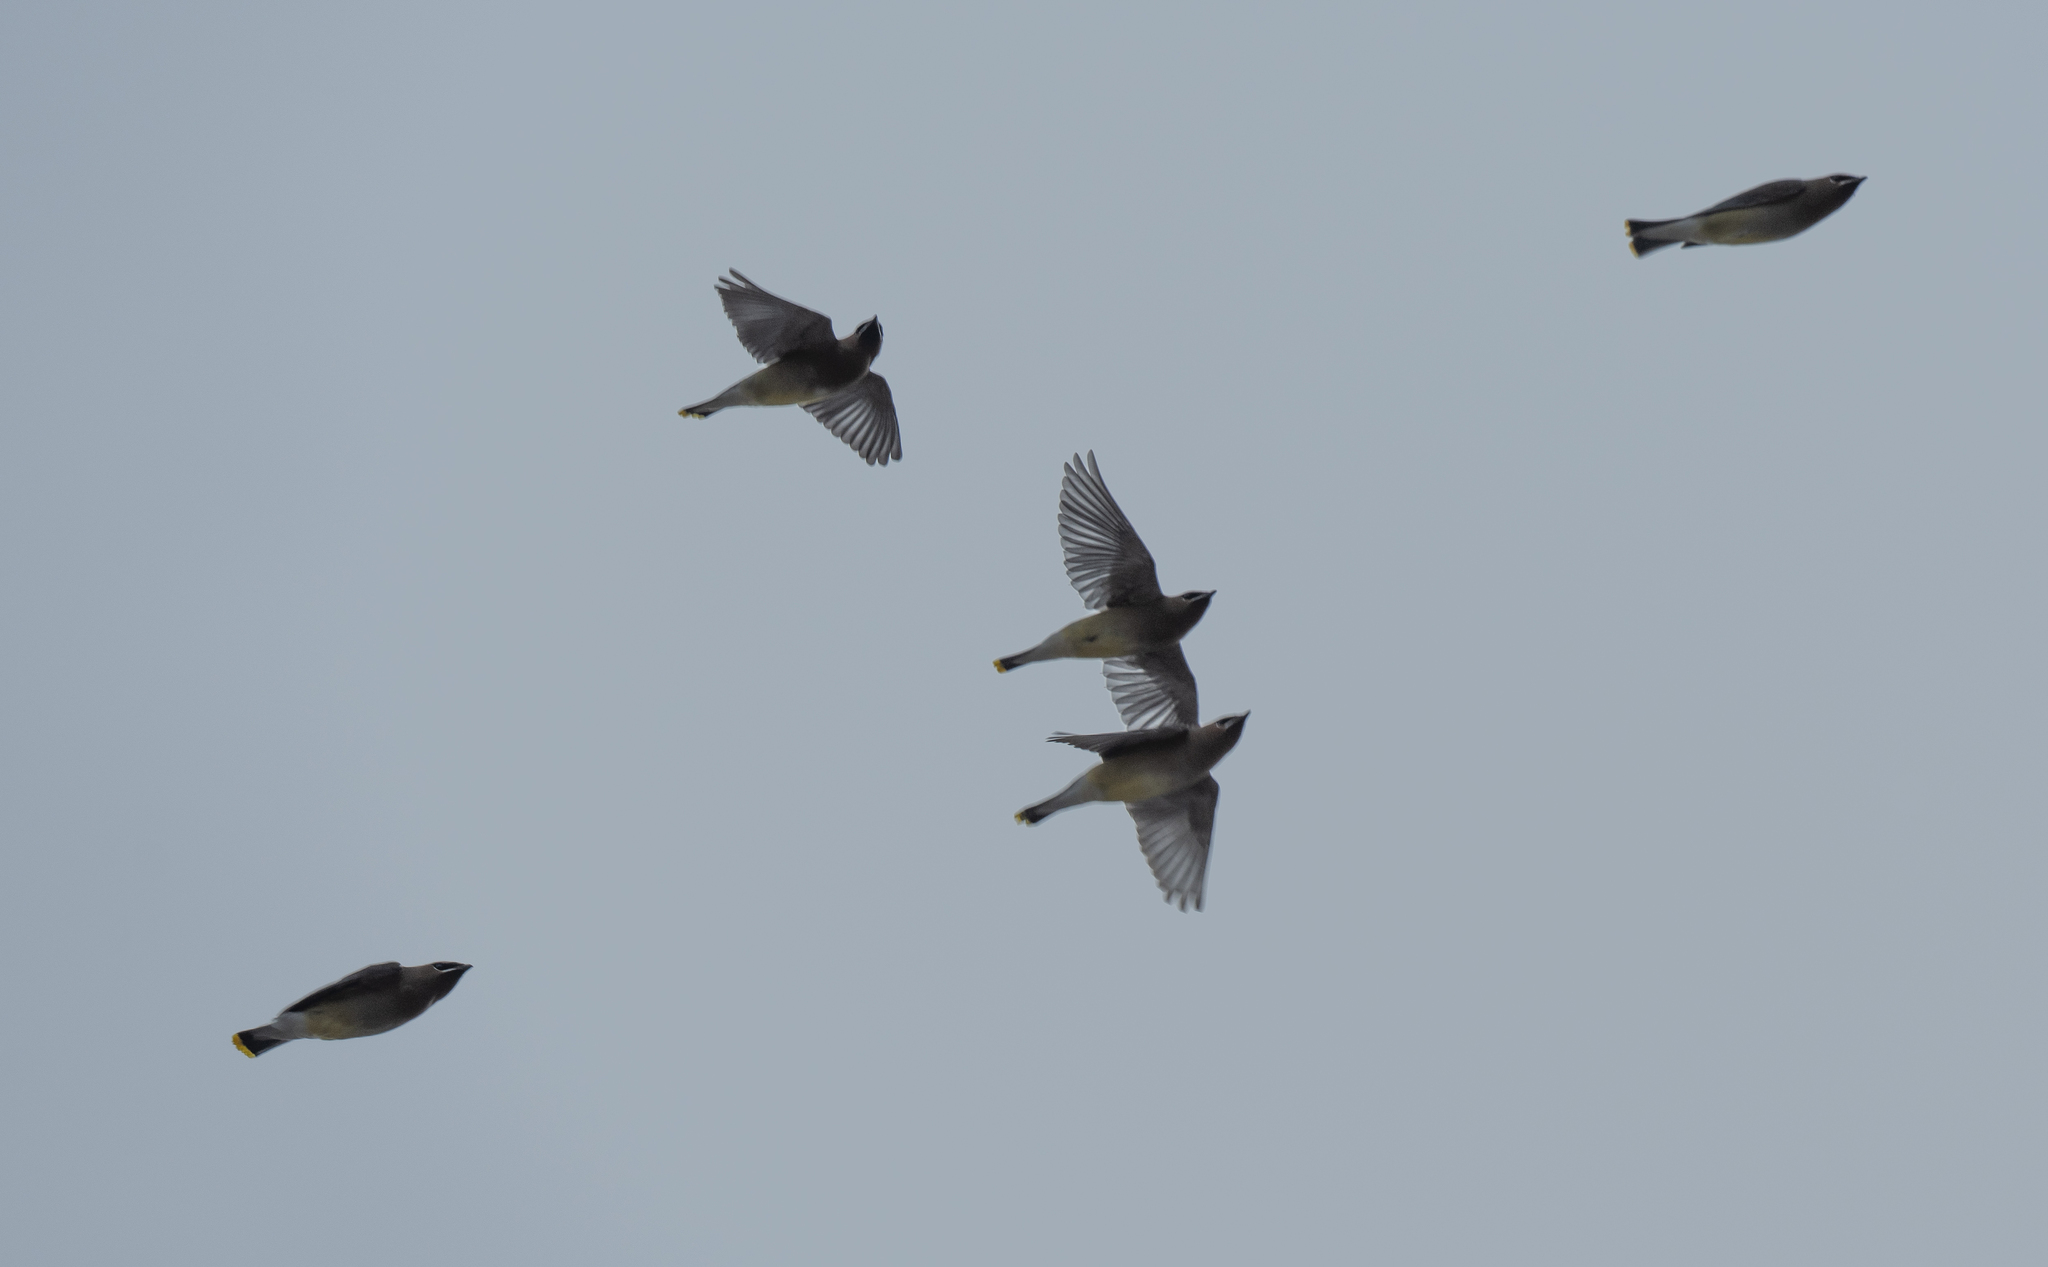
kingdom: Animalia
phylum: Chordata
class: Aves
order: Passeriformes
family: Bombycillidae
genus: Bombycilla
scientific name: Bombycilla cedrorum
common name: Cedar waxwing
